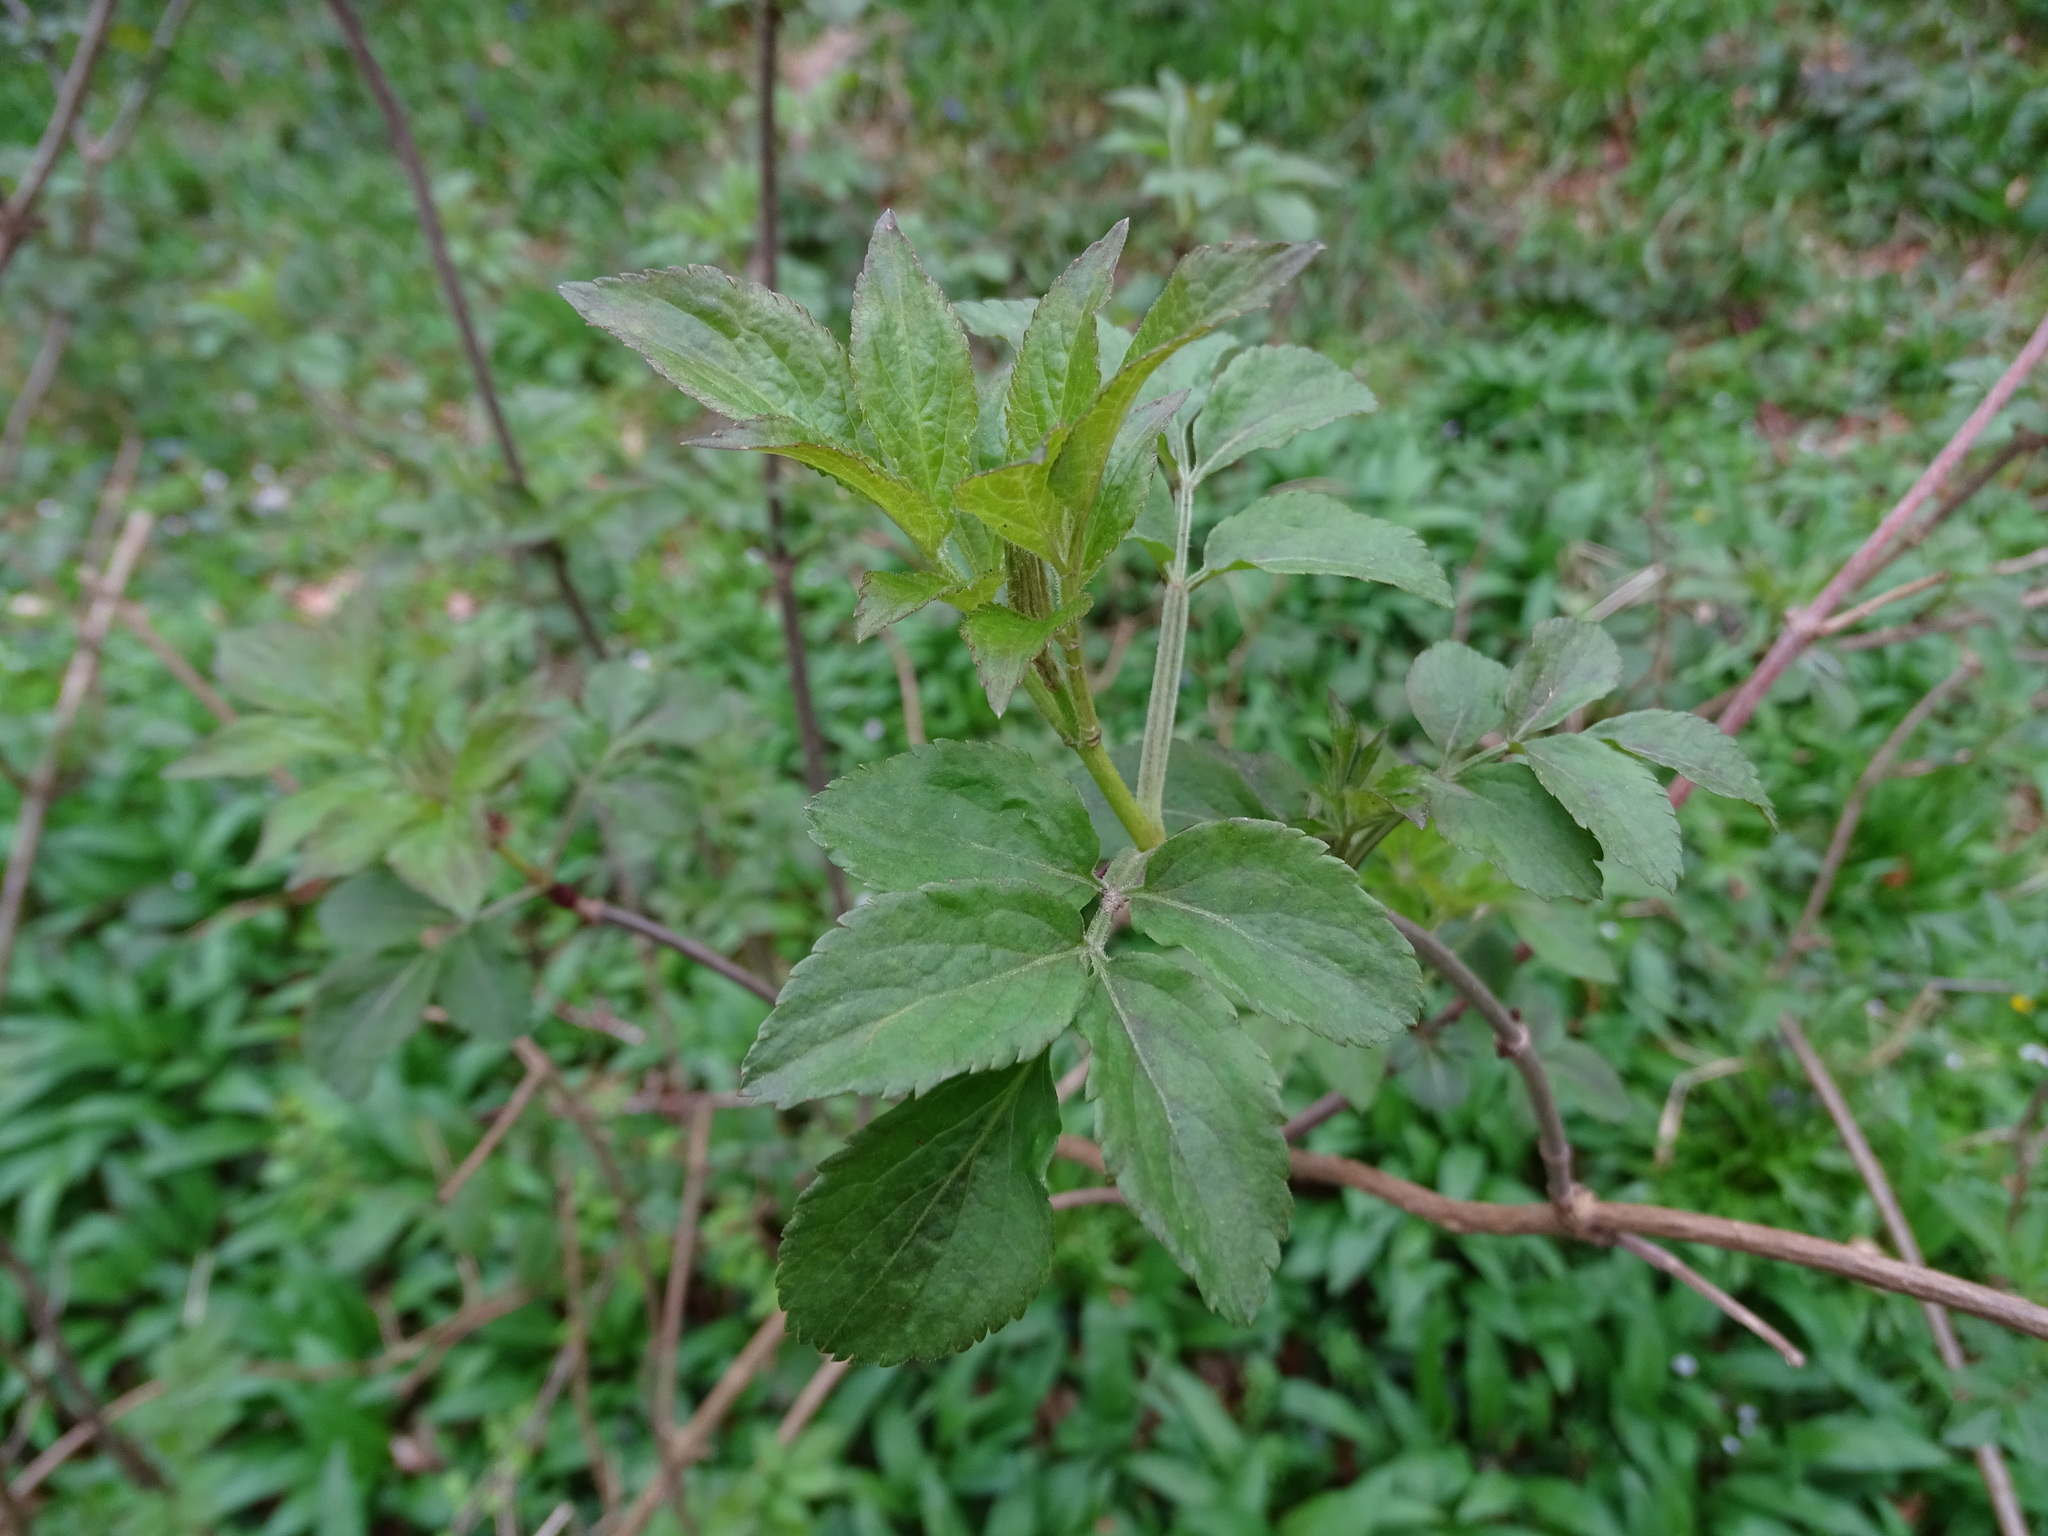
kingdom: Plantae
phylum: Tracheophyta
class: Magnoliopsida
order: Dipsacales
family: Viburnaceae
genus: Sambucus
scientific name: Sambucus nigra
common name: Elder
